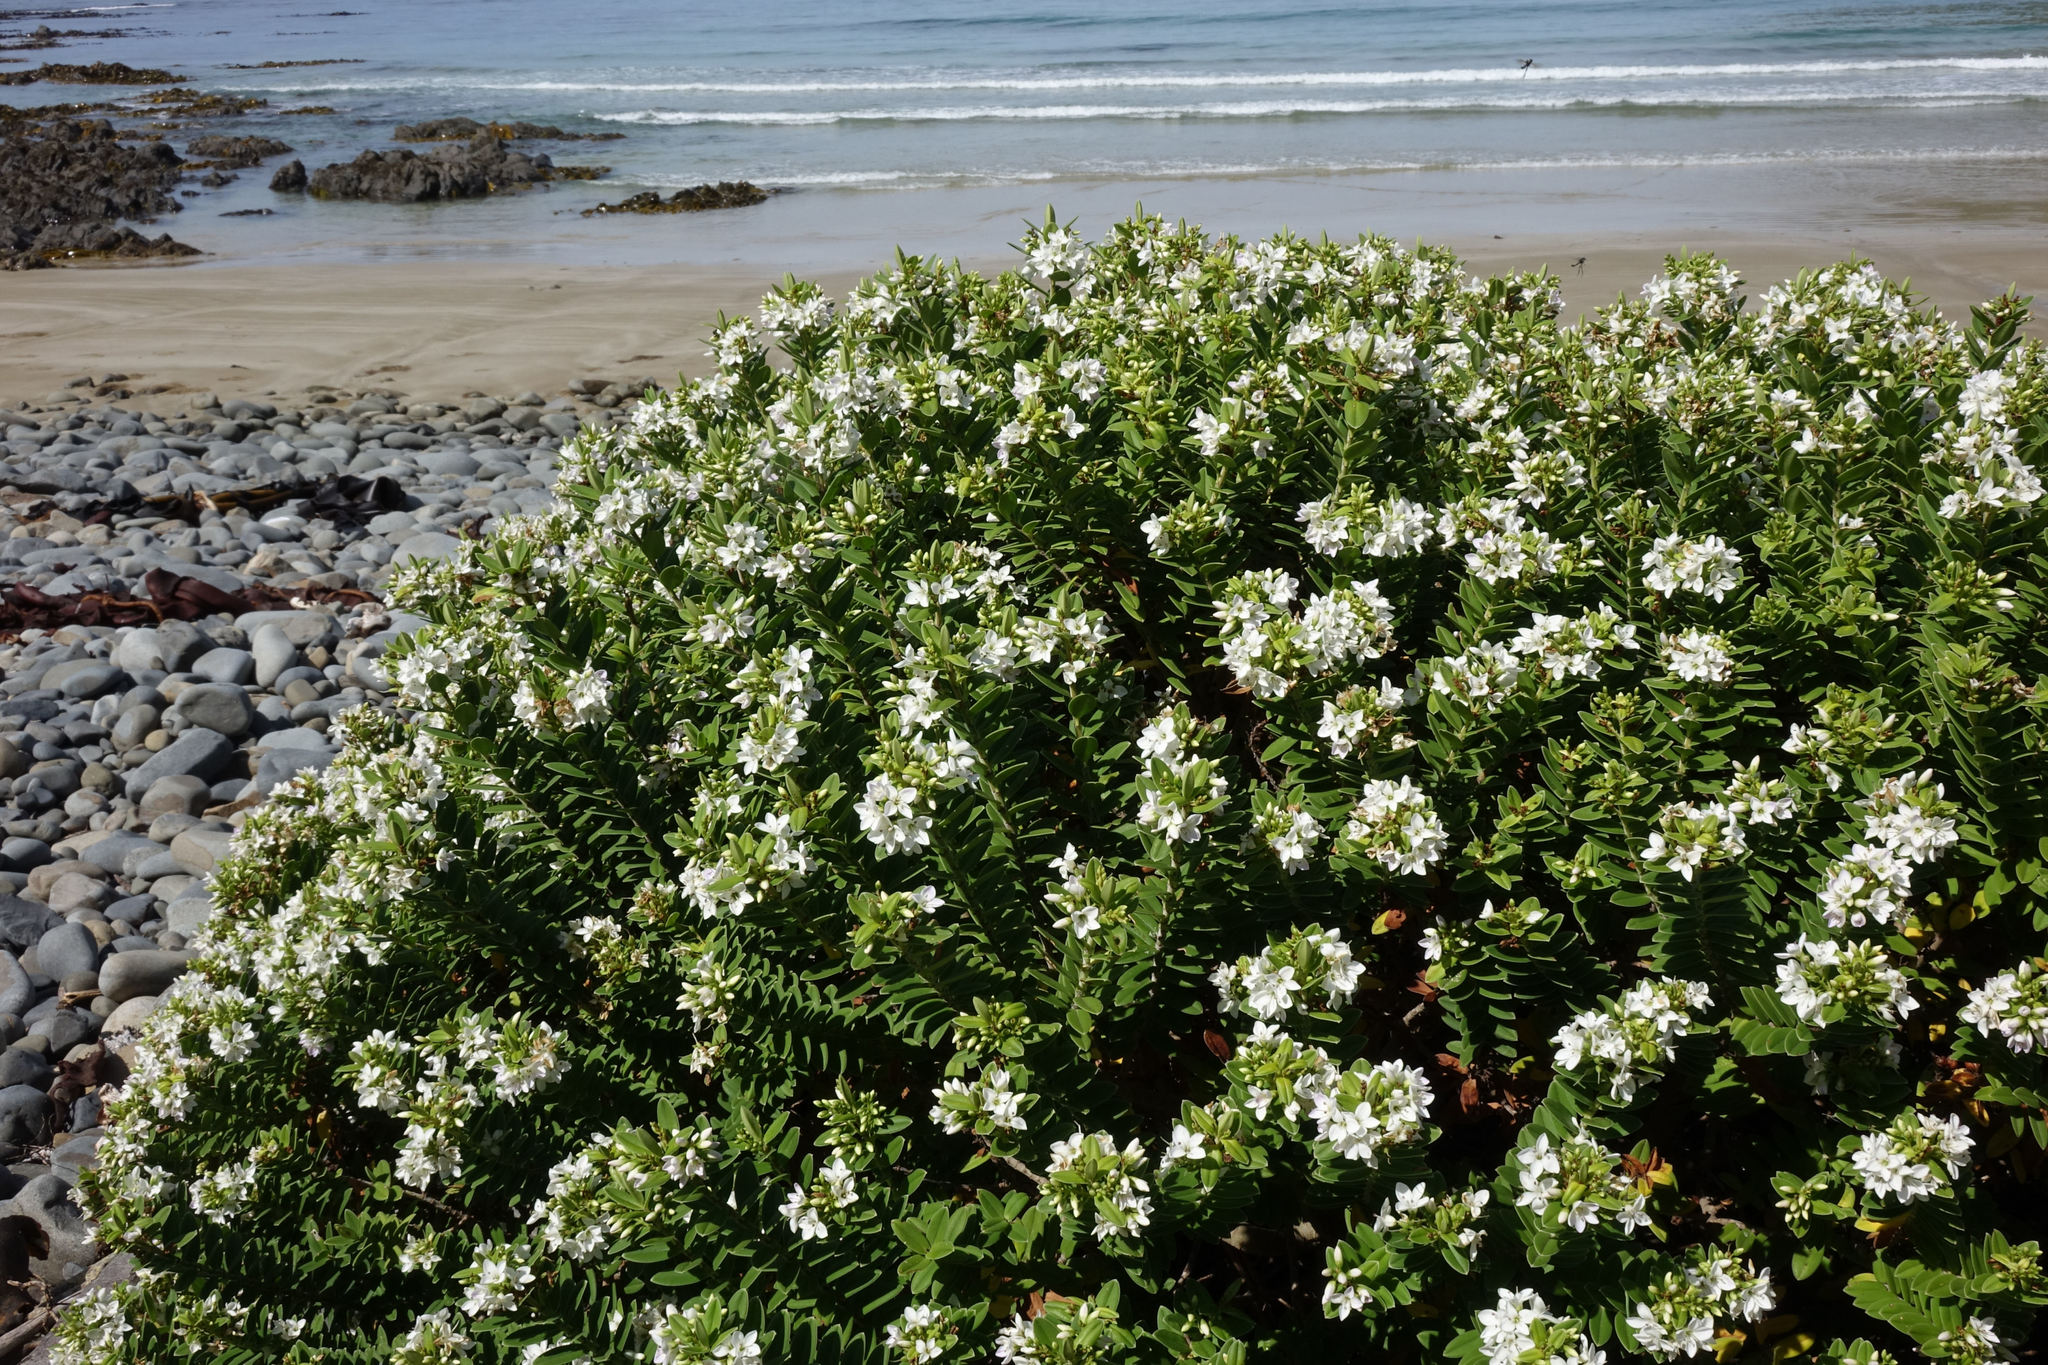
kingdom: Plantae
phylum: Tracheophyta
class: Magnoliopsida
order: Lamiales
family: Plantaginaceae
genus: Veronica
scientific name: Veronica elliptica
